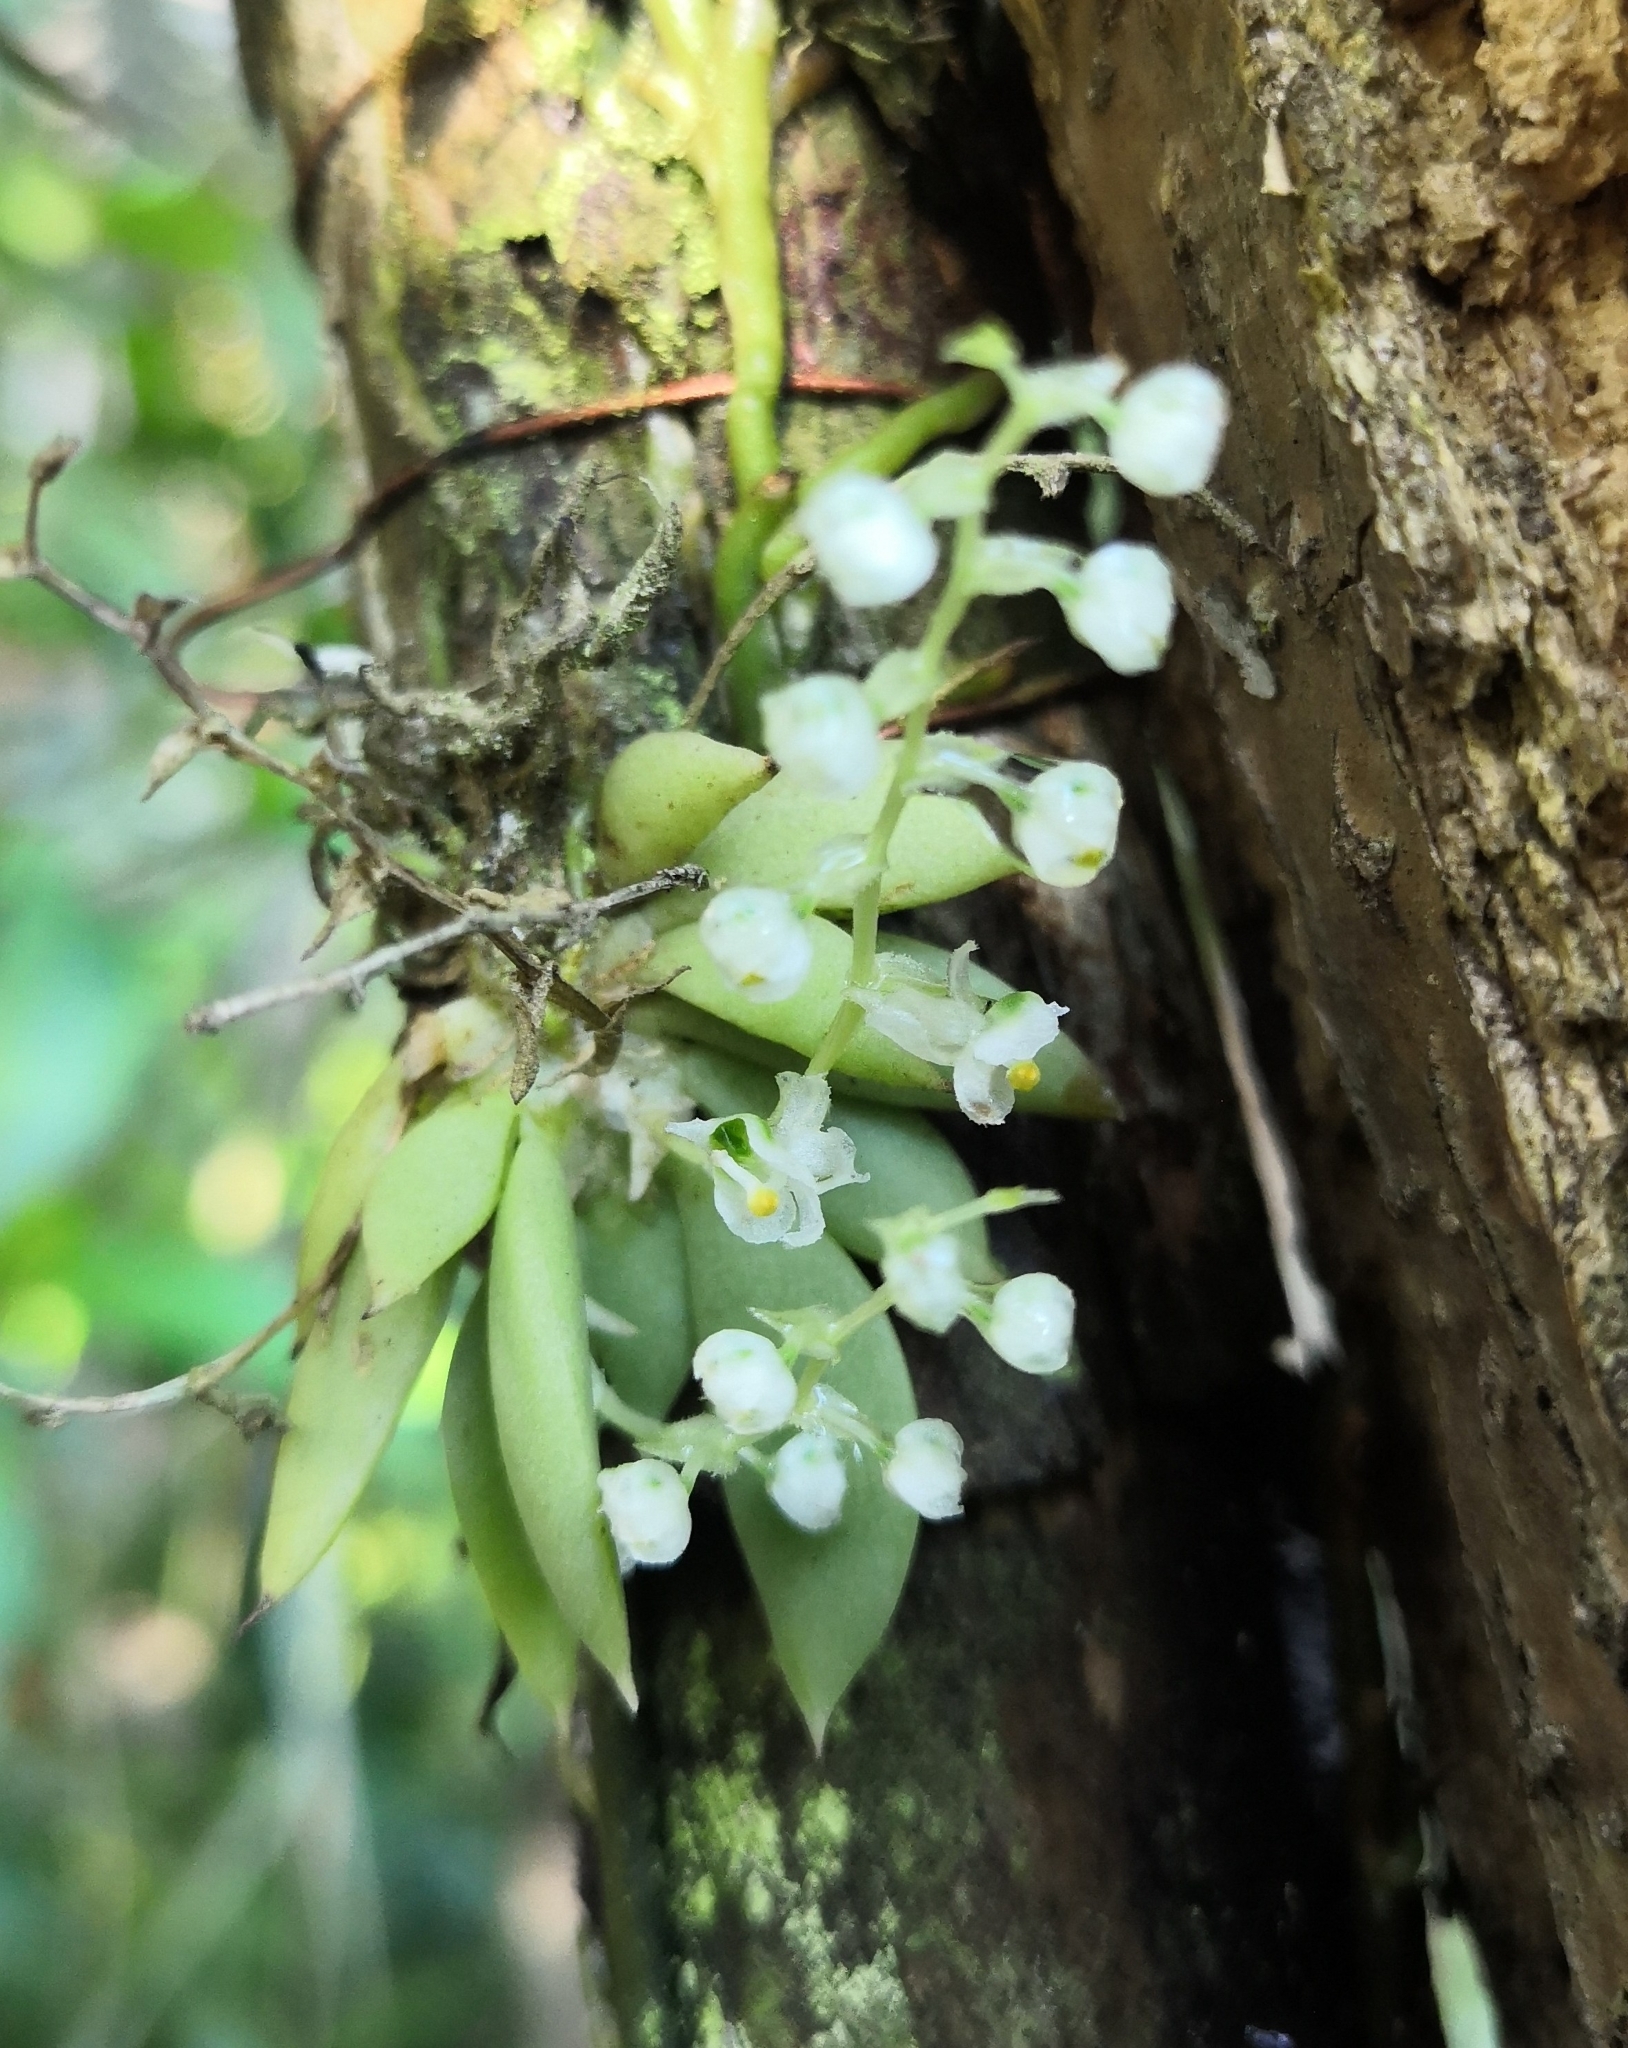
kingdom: Plantae
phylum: Tracheophyta
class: Liliopsida
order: Asparagales
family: Orchidaceae
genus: Ornithocephalus
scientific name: Ornithocephalus biloborostratus
